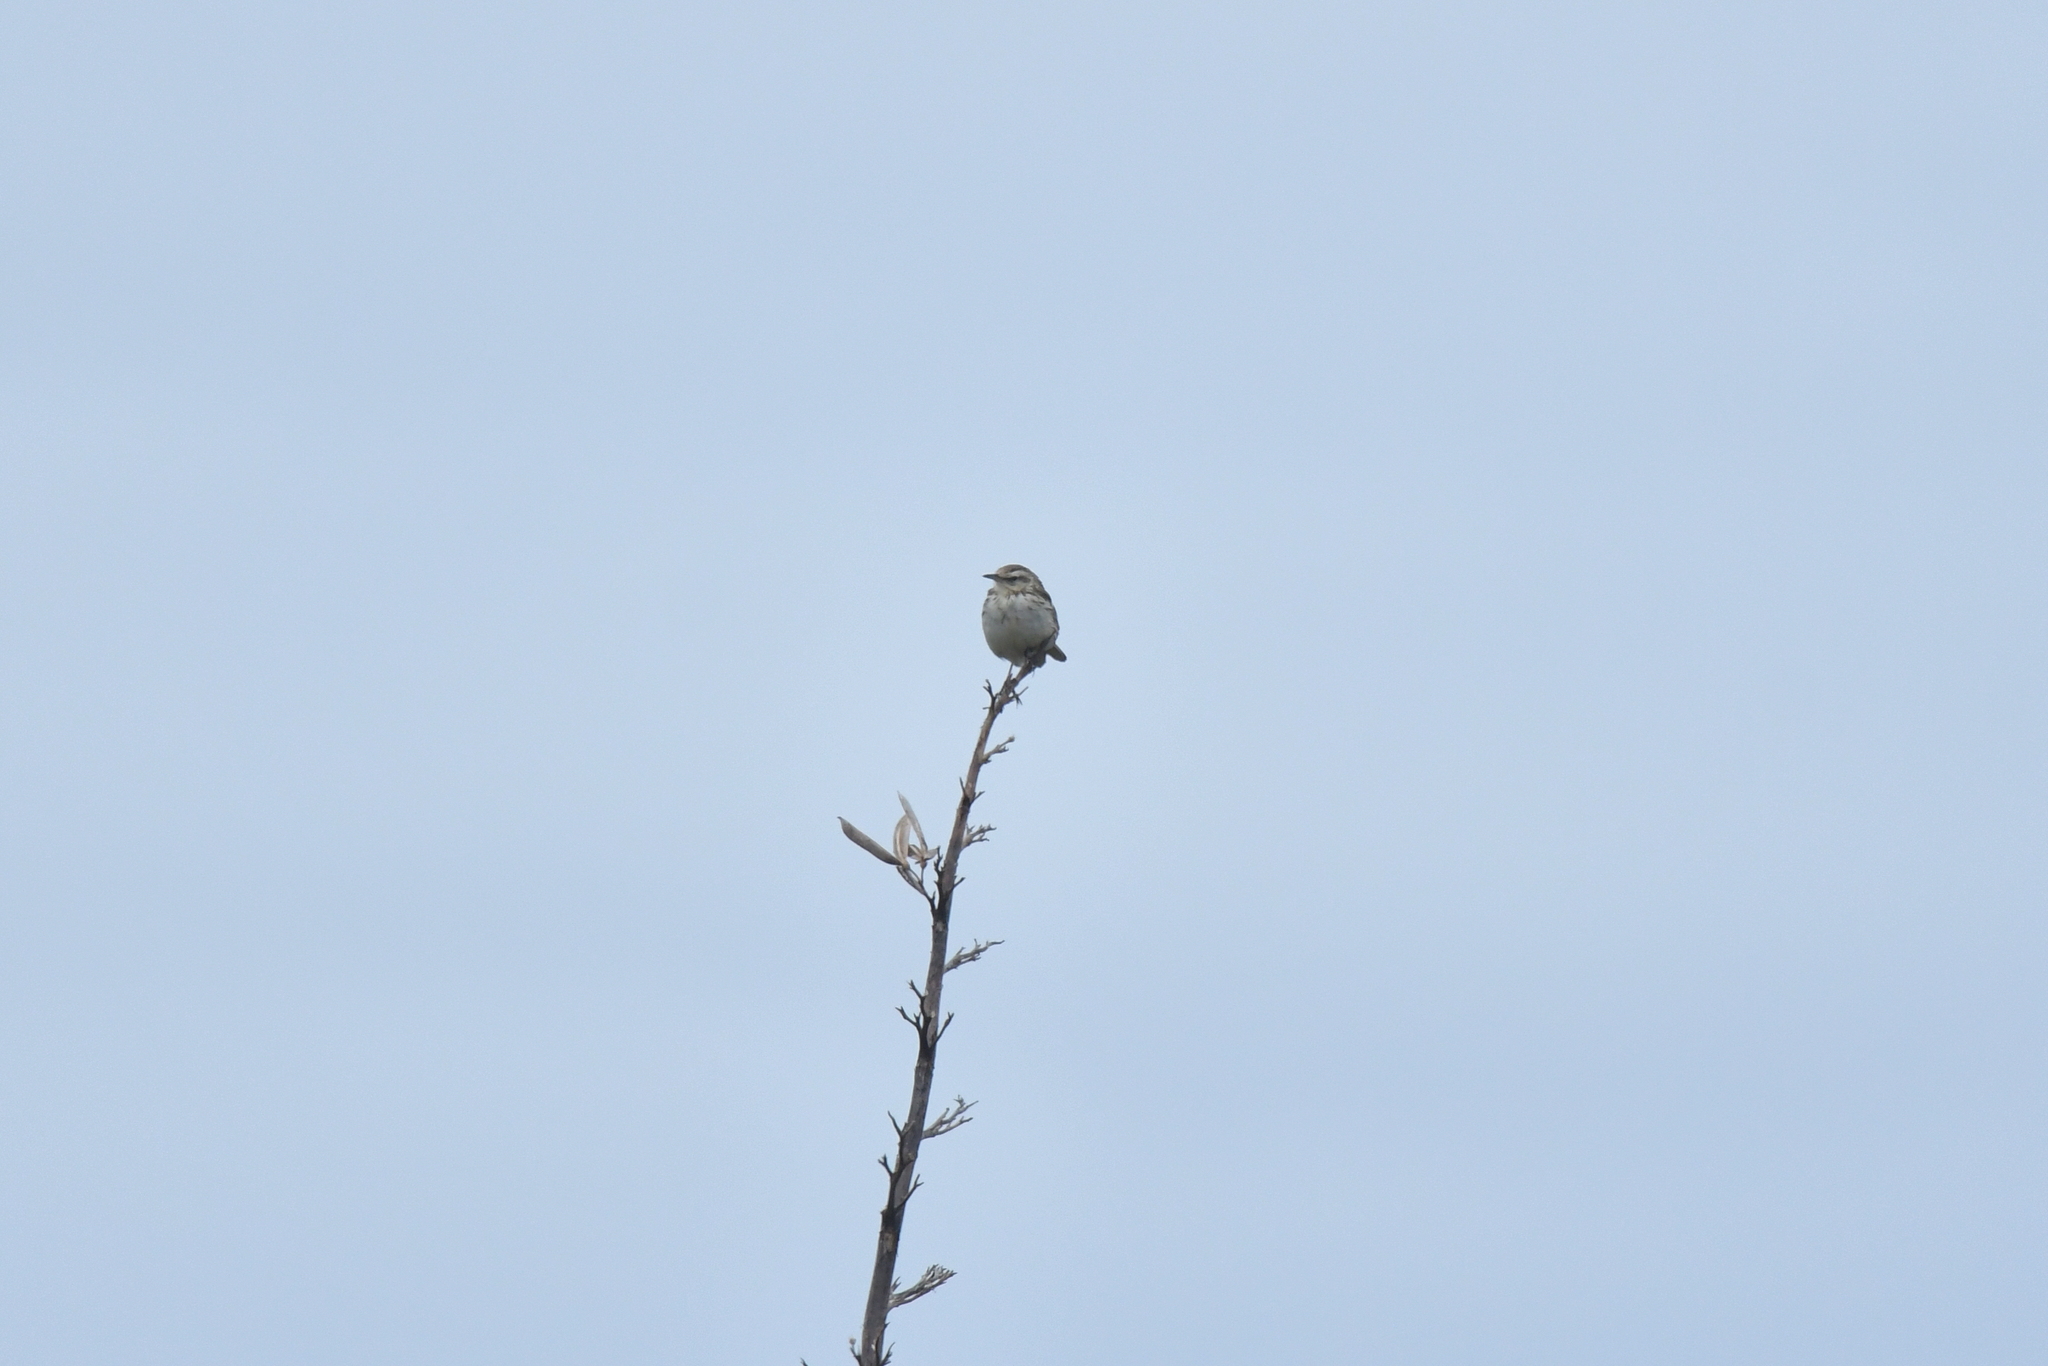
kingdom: Animalia
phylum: Chordata
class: Aves
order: Passeriformes
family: Motacillidae
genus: Anthus
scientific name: Anthus novaeseelandiae
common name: New zealand pipit
